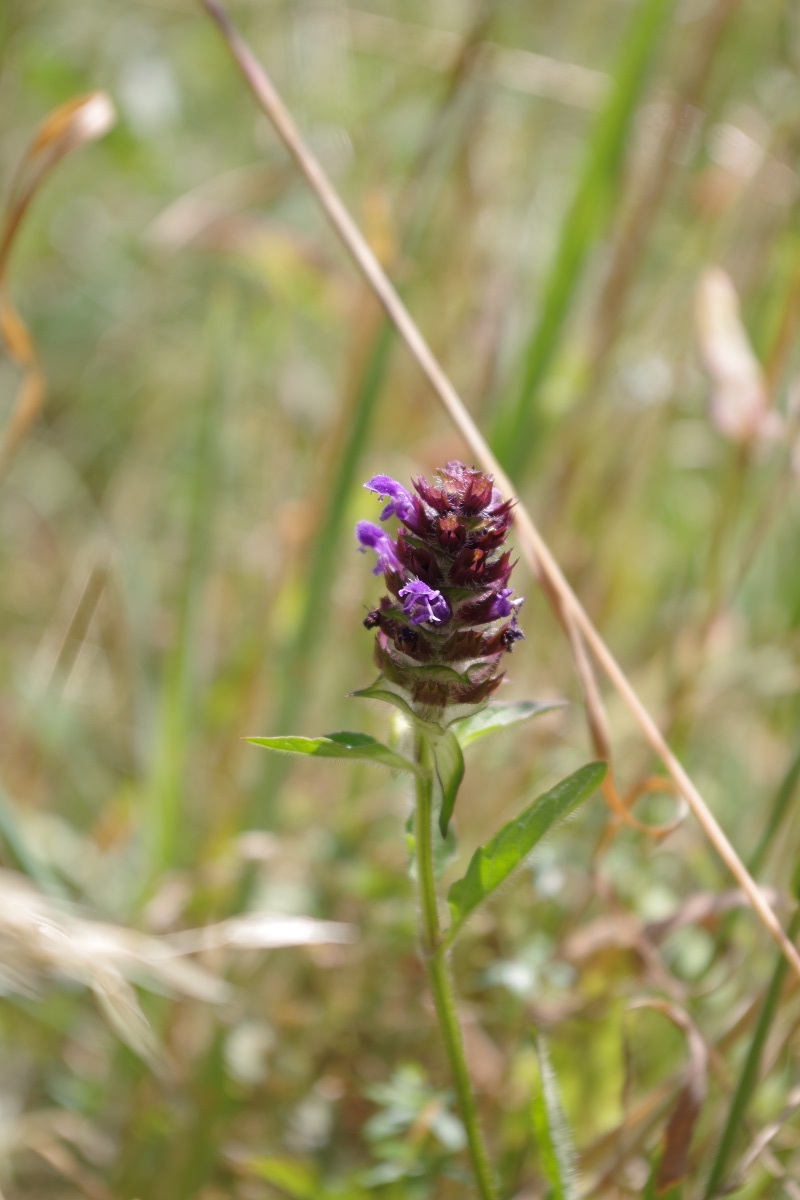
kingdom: Plantae
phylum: Tracheophyta
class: Magnoliopsida
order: Lamiales
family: Lamiaceae
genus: Prunella
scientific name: Prunella vulgaris
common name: Heal-all
